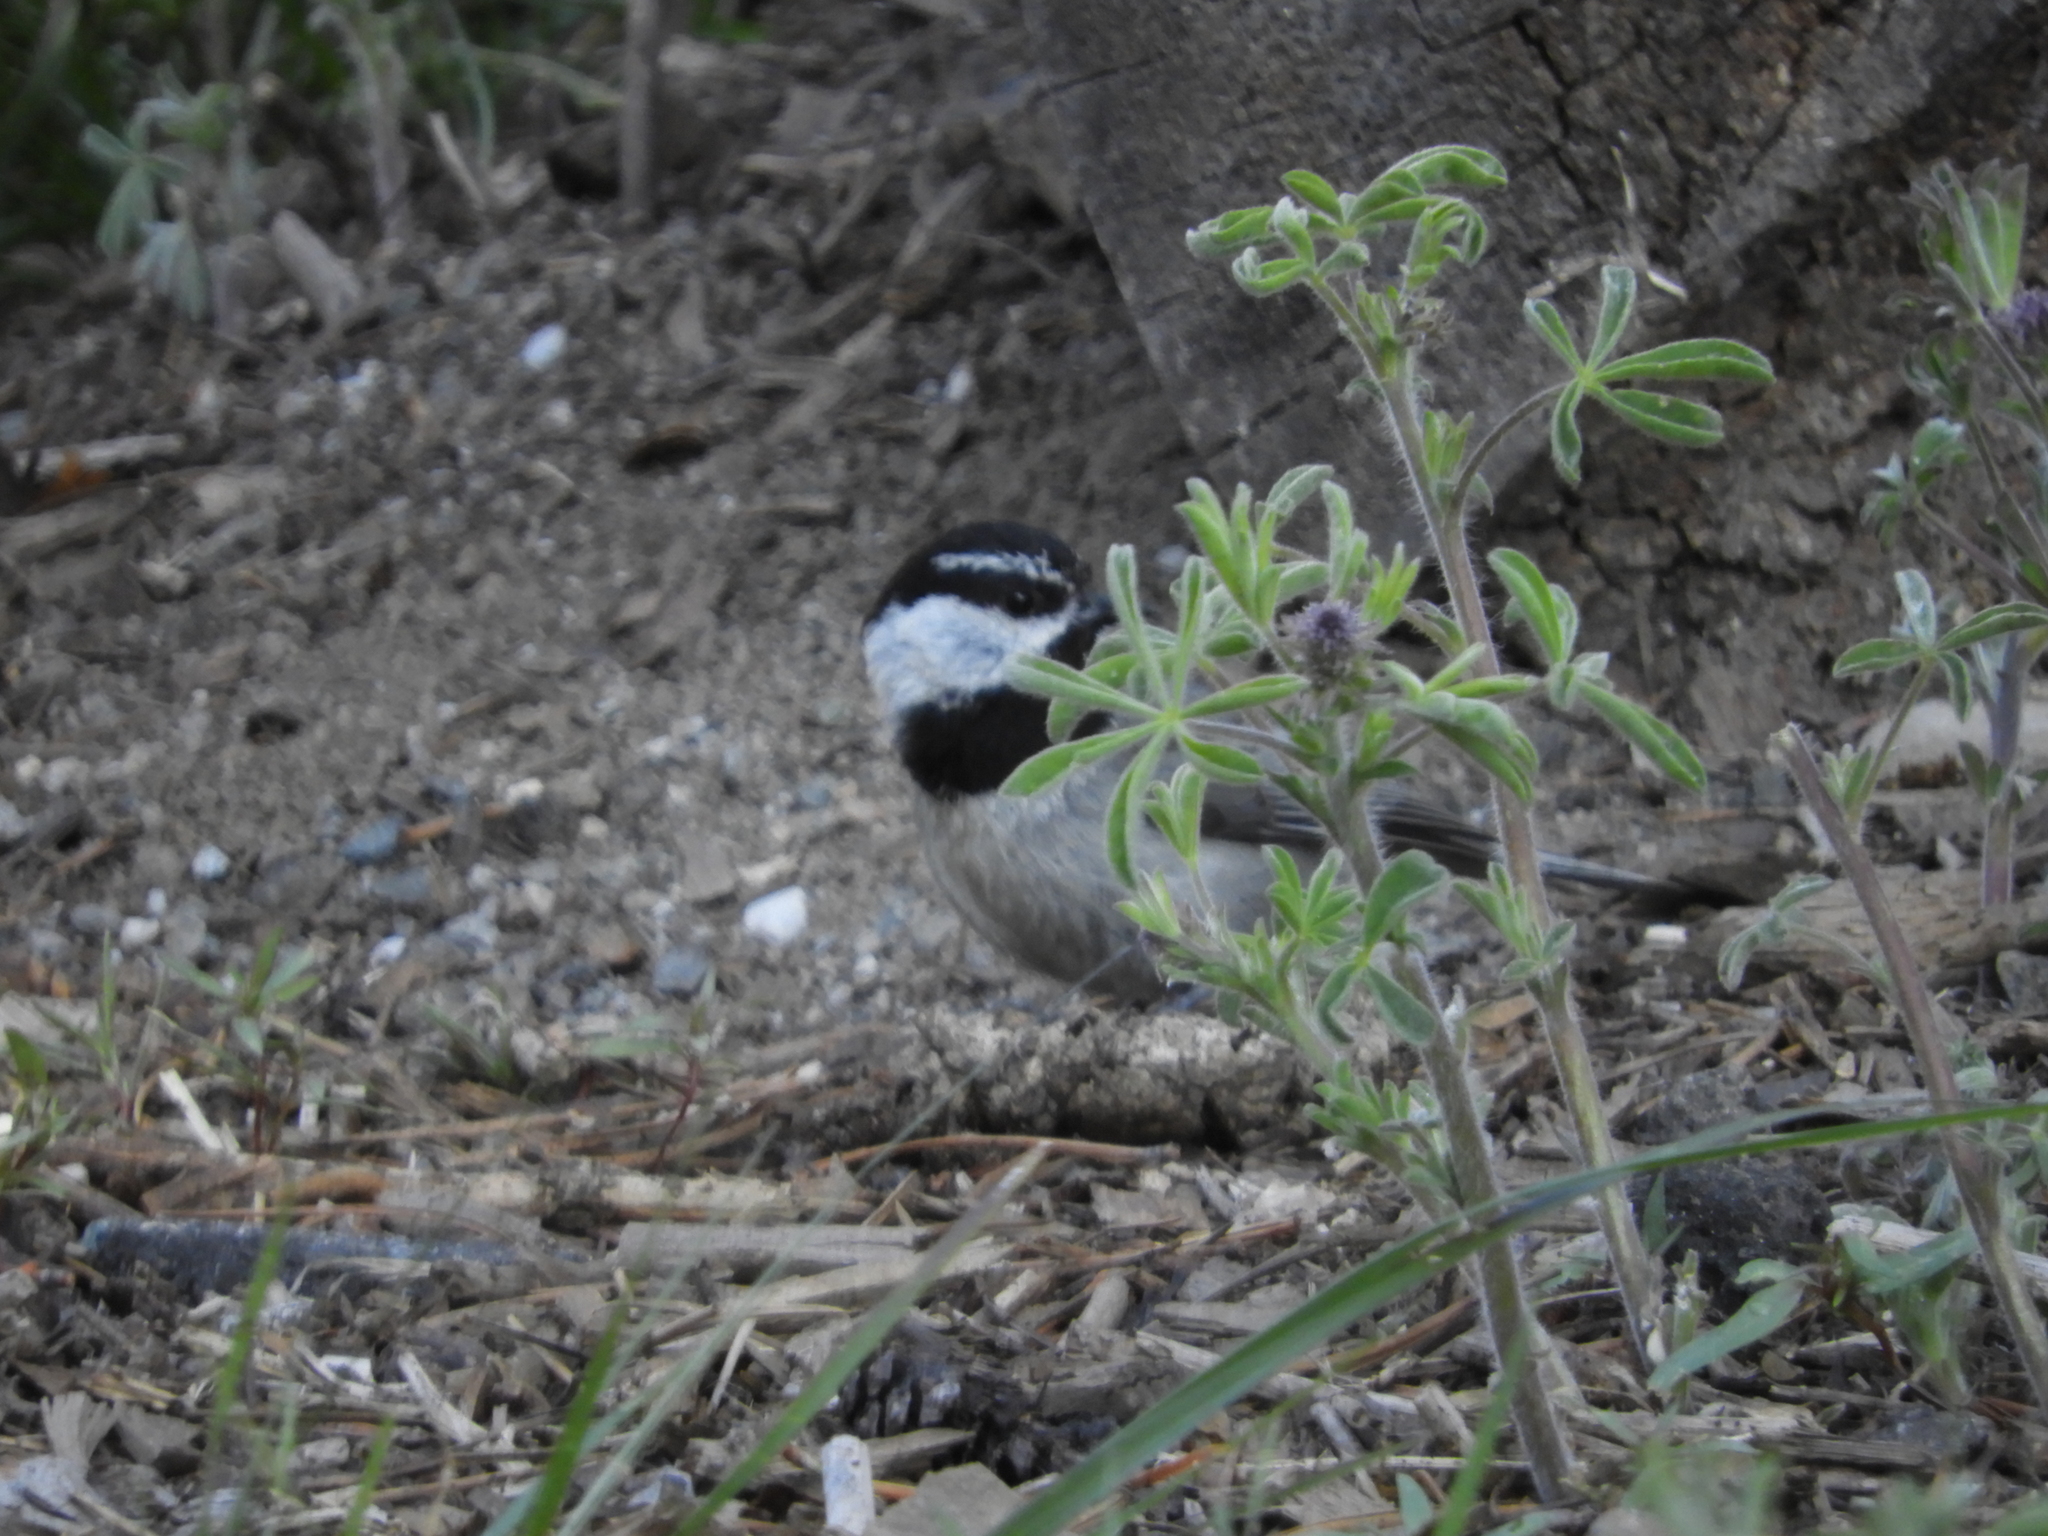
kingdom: Animalia
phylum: Chordata
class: Aves
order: Passeriformes
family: Paridae
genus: Poecile
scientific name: Poecile gambeli
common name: Mountain chickadee
